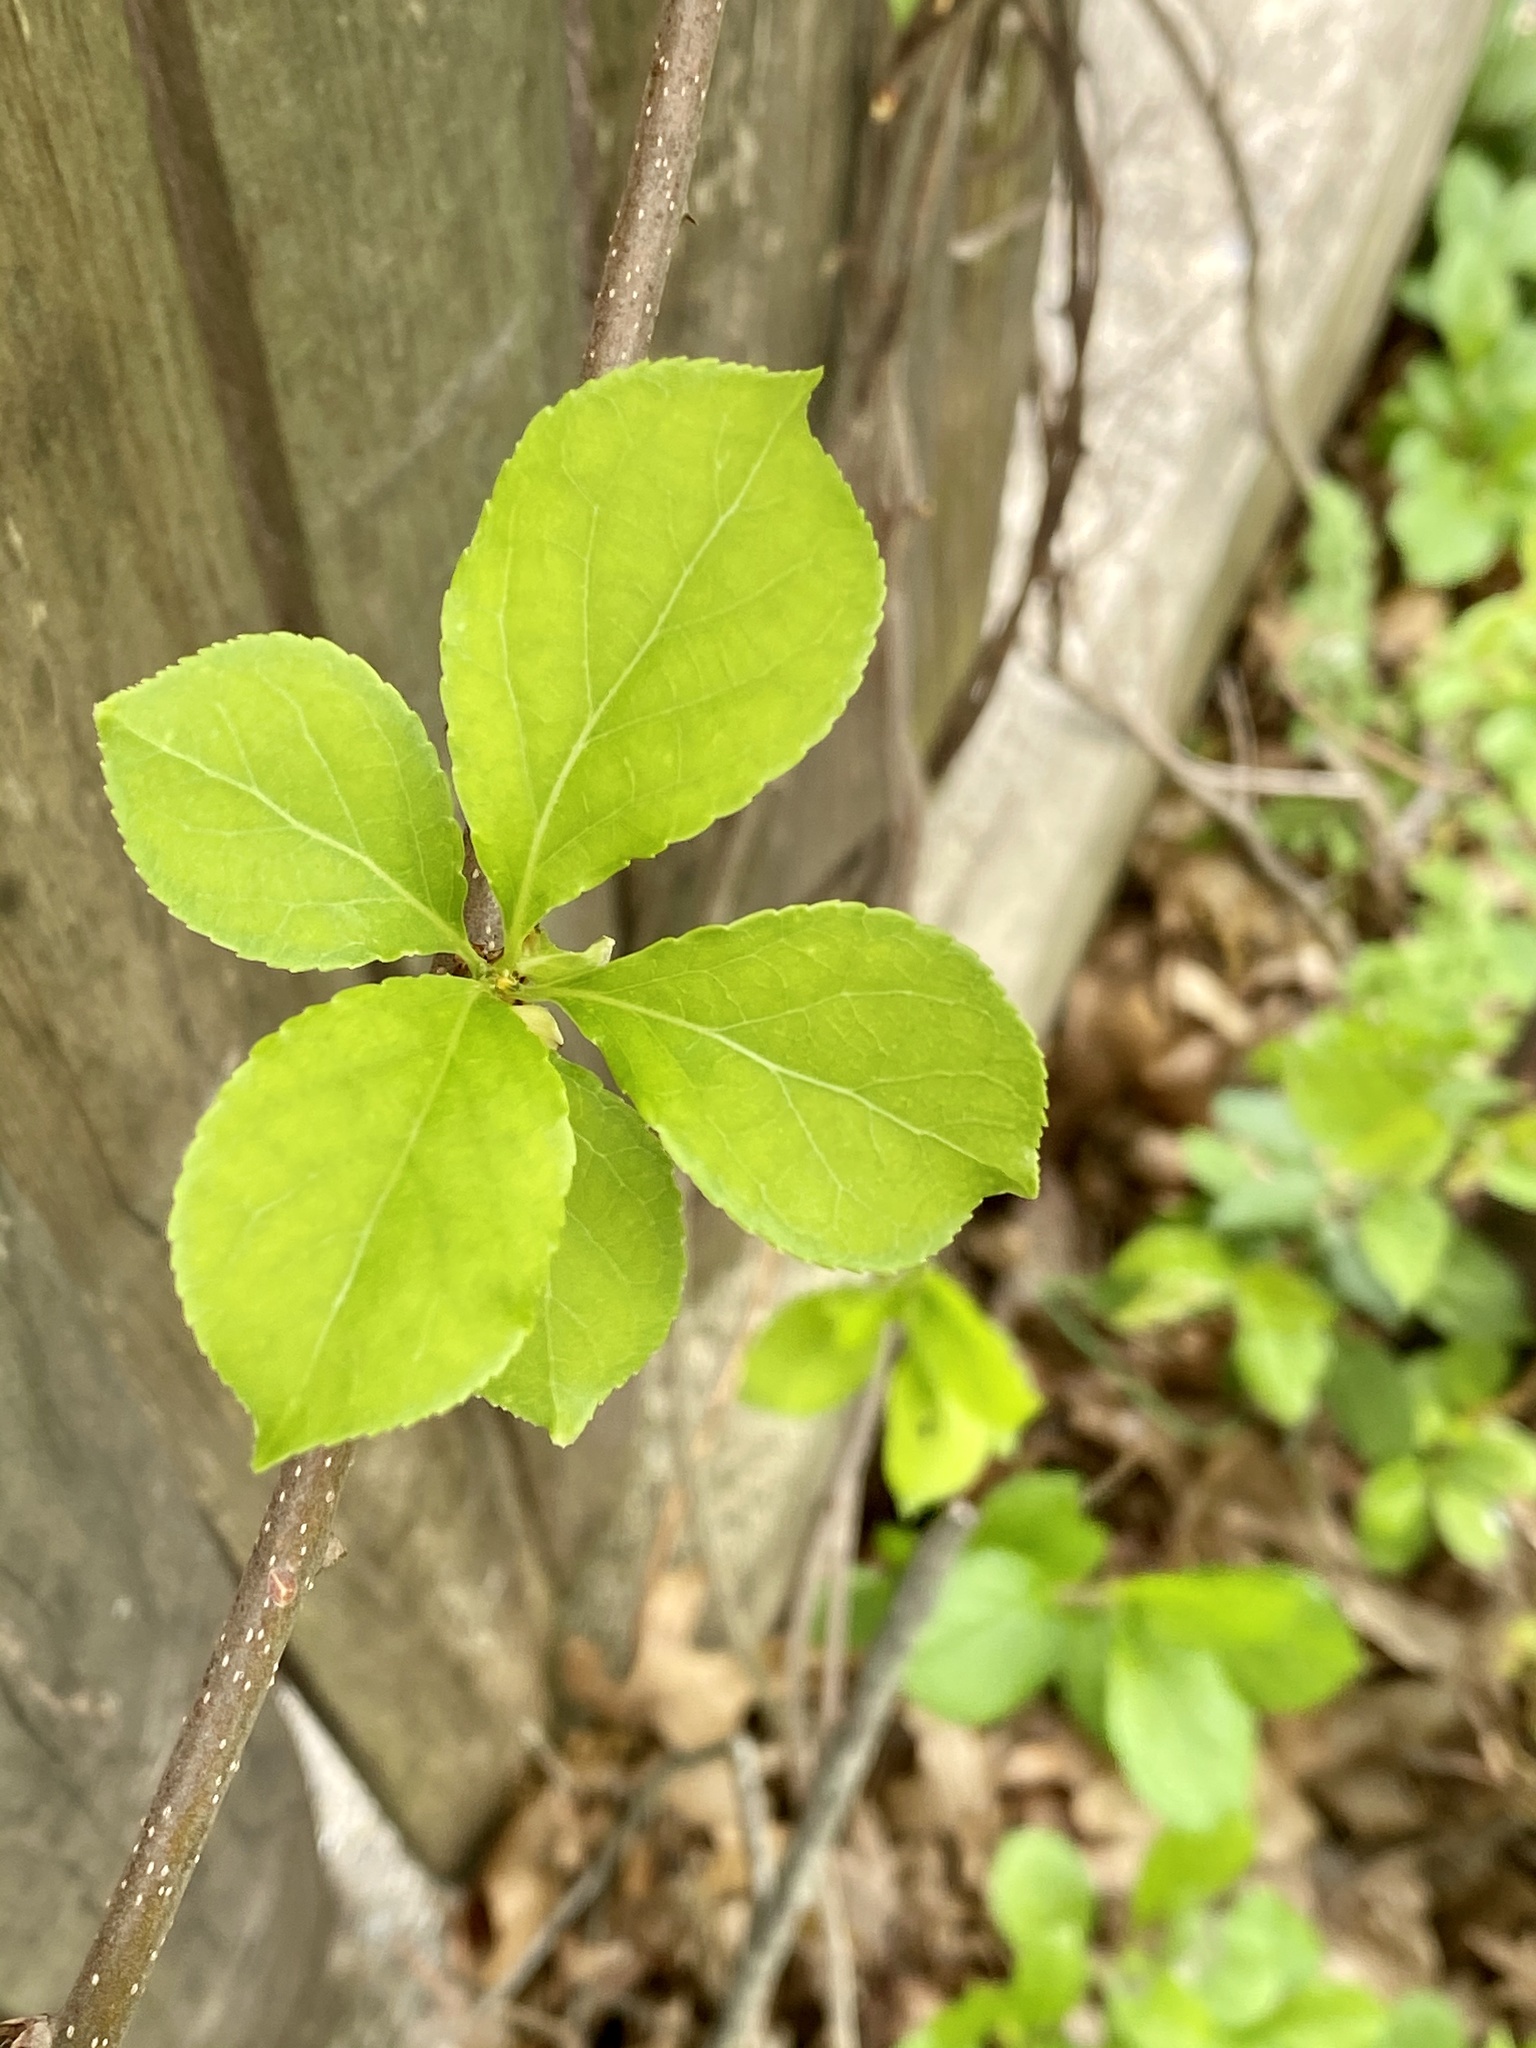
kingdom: Plantae
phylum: Tracheophyta
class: Magnoliopsida
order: Celastrales
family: Celastraceae
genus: Celastrus
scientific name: Celastrus orbiculatus
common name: Oriental bittersweet
